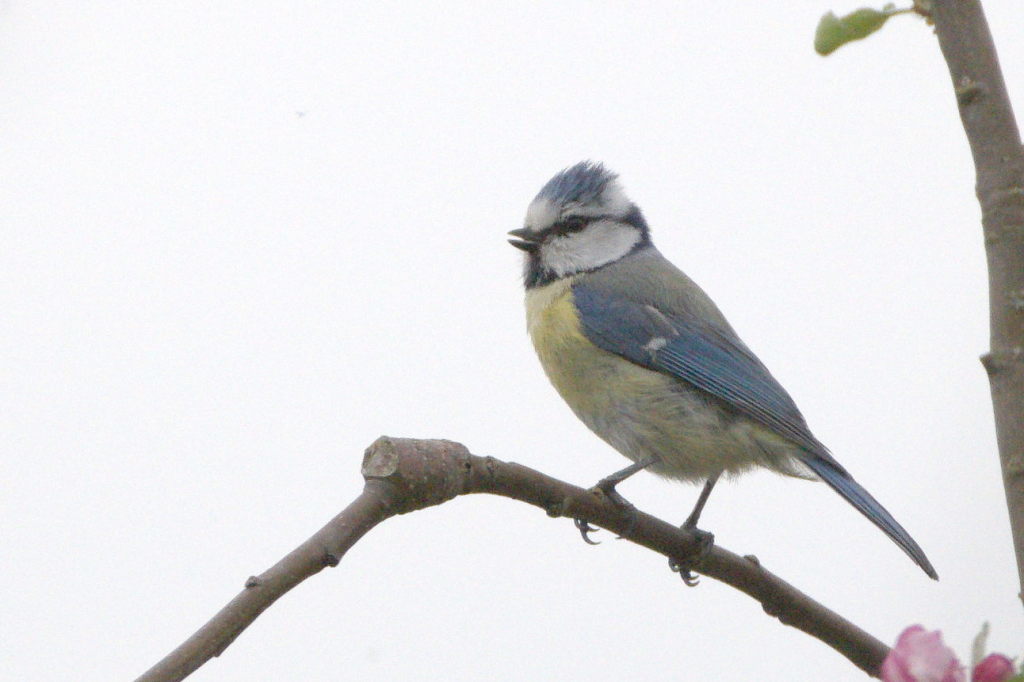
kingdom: Animalia
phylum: Chordata
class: Aves
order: Passeriformes
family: Paridae
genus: Cyanistes
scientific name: Cyanistes caeruleus
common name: Eurasian blue tit
